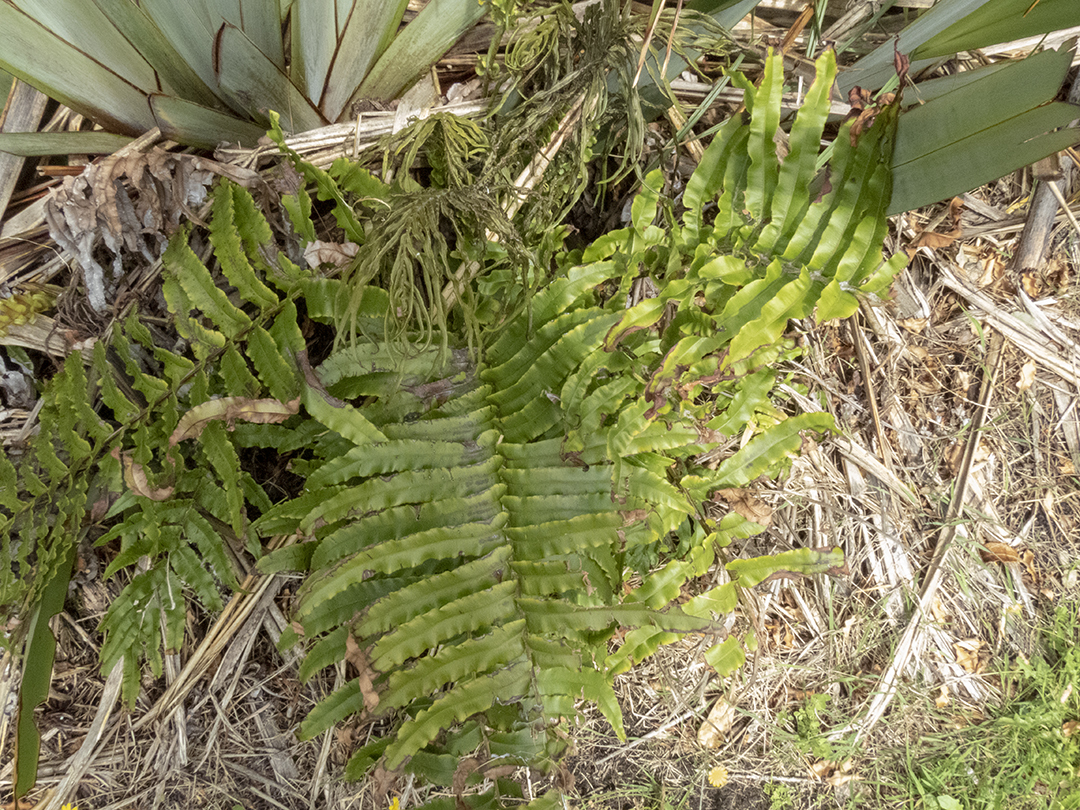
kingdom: Plantae
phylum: Tracheophyta
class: Polypodiopsida
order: Polypodiales
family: Blechnaceae
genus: Parablechnum
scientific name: Parablechnum novae-zelandiae
